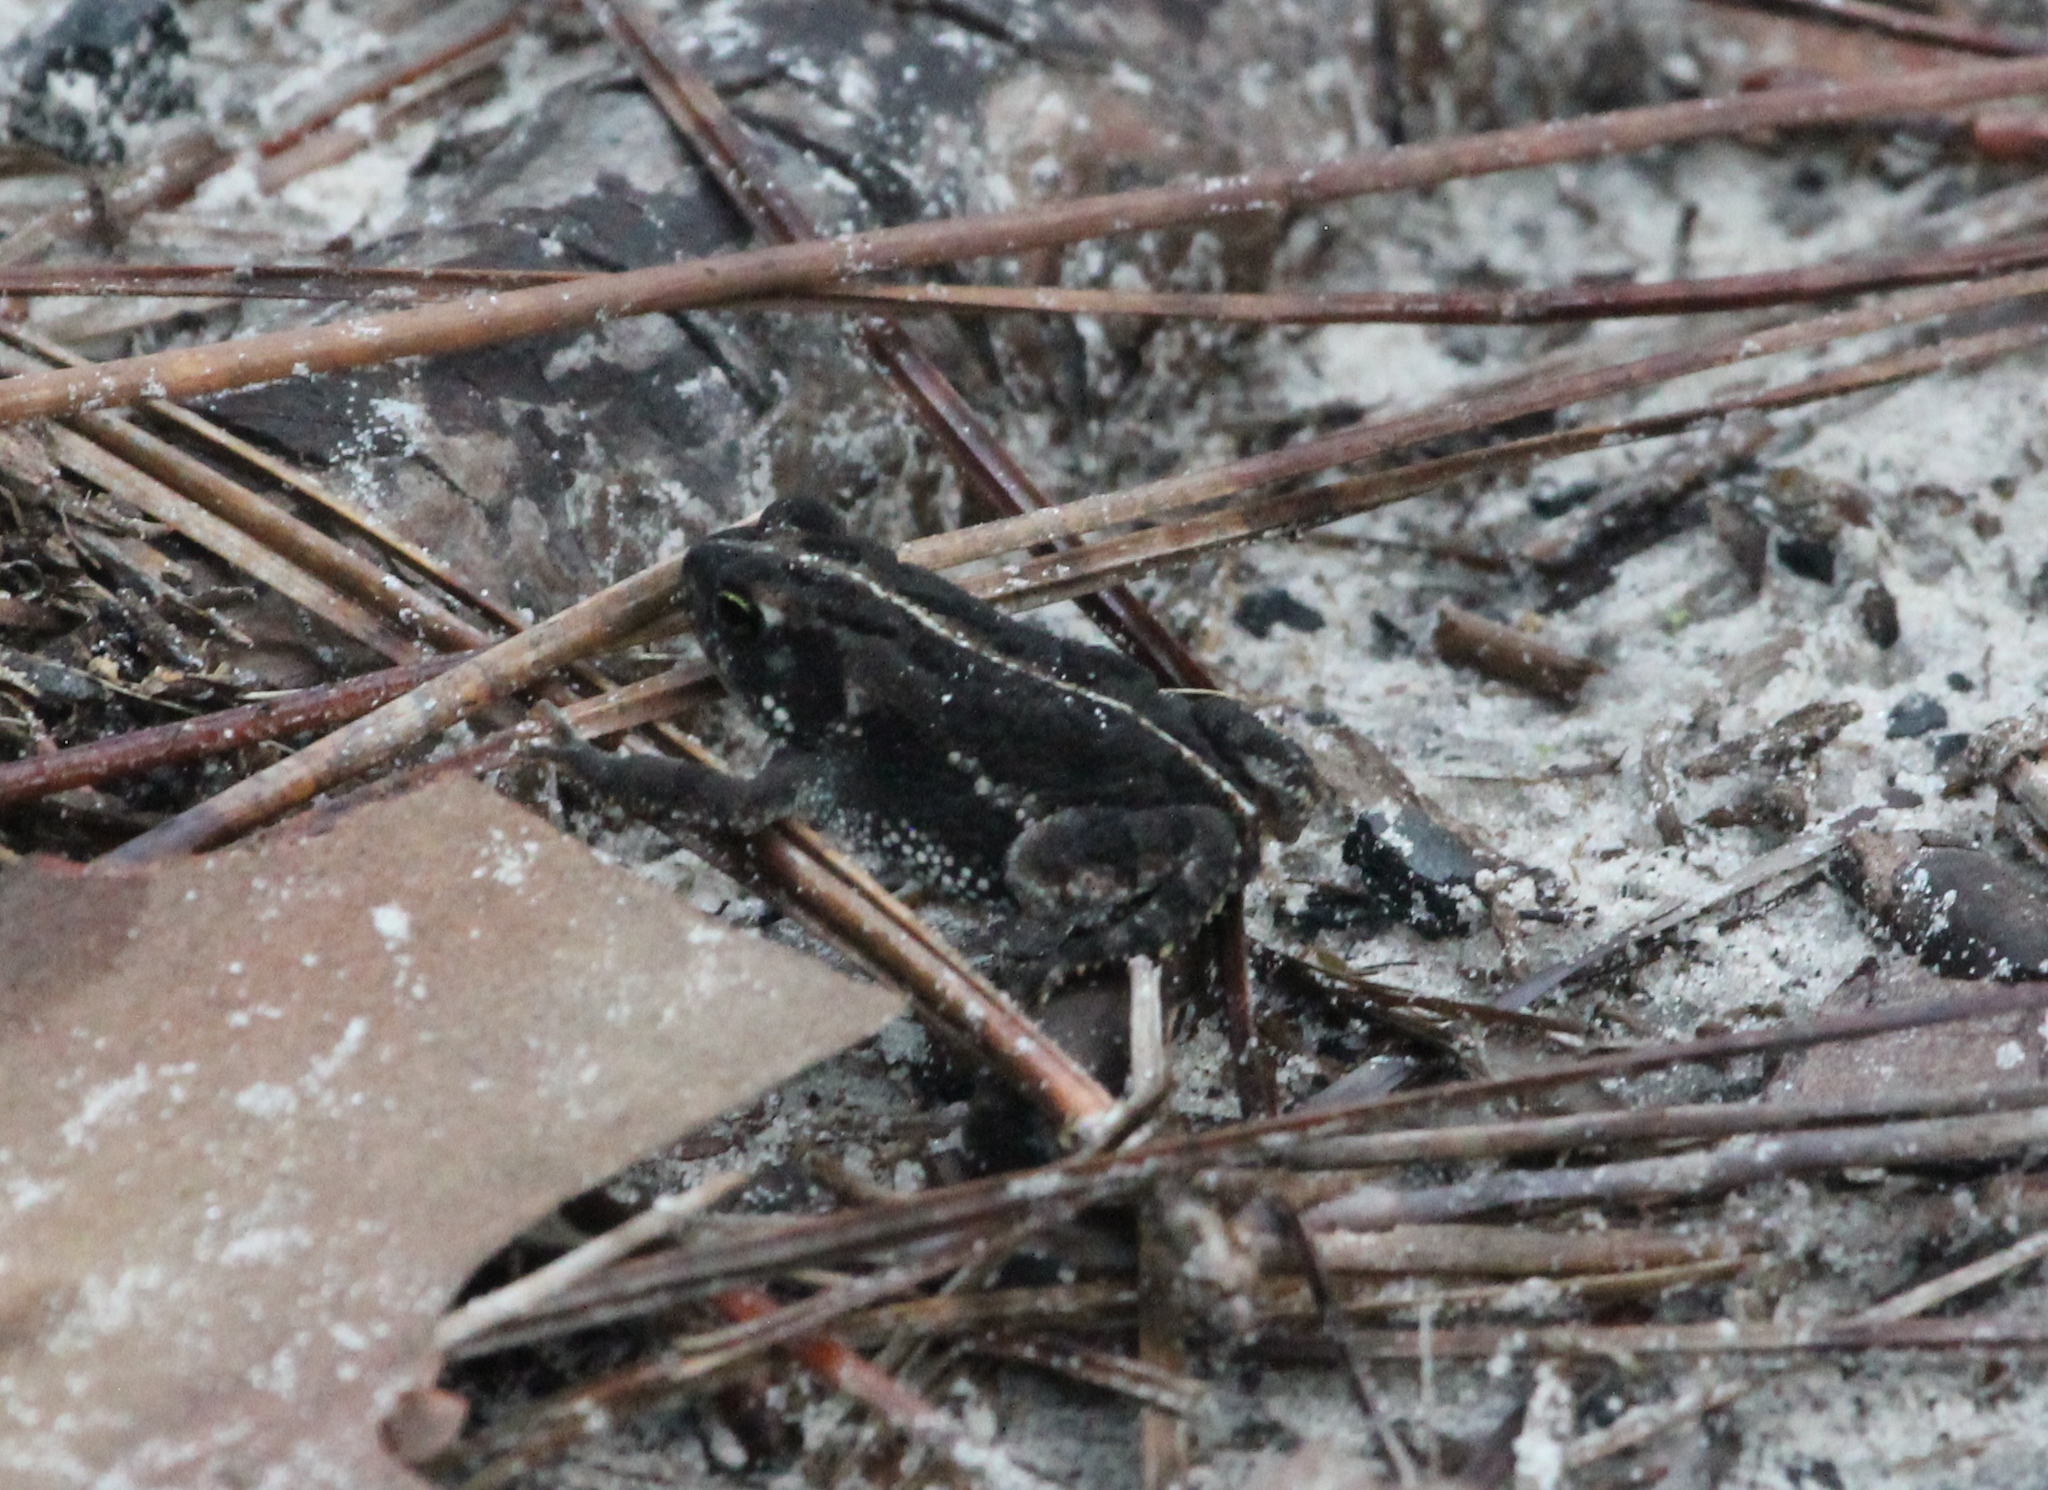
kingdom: Animalia
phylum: Chordata
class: Amphibia
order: Anura
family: Bufonidae
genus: Anaxyrus
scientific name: Anaxyrus quercicus
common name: Oak toad
